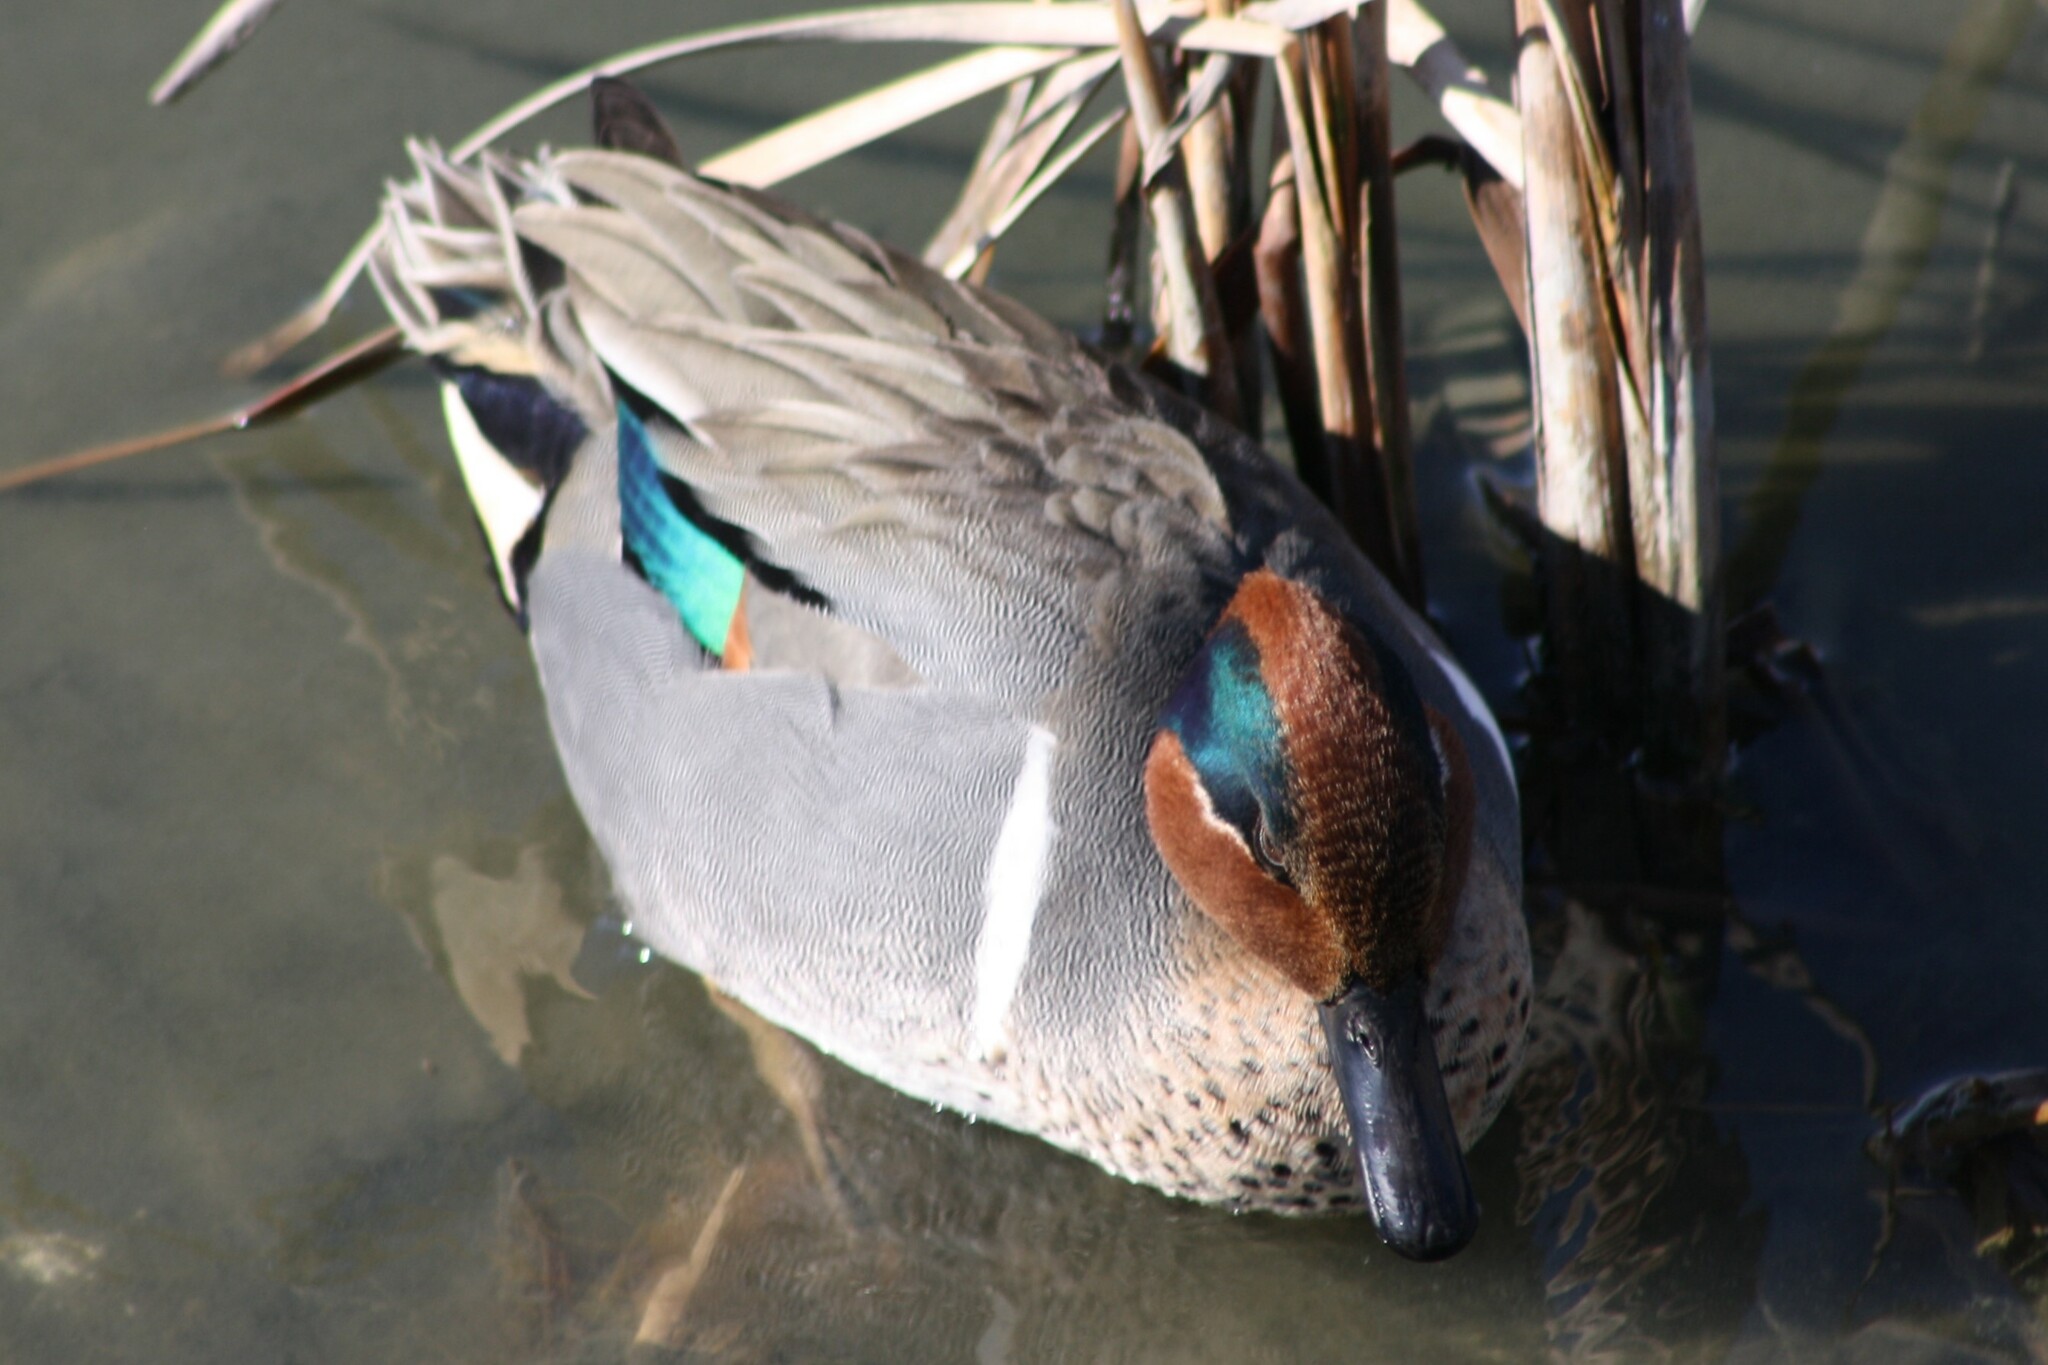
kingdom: Animalia
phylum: Chordata
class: Aves
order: Anseriformes
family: Anatidae
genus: Anas
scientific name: Anas crecca
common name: Eurasian teal
